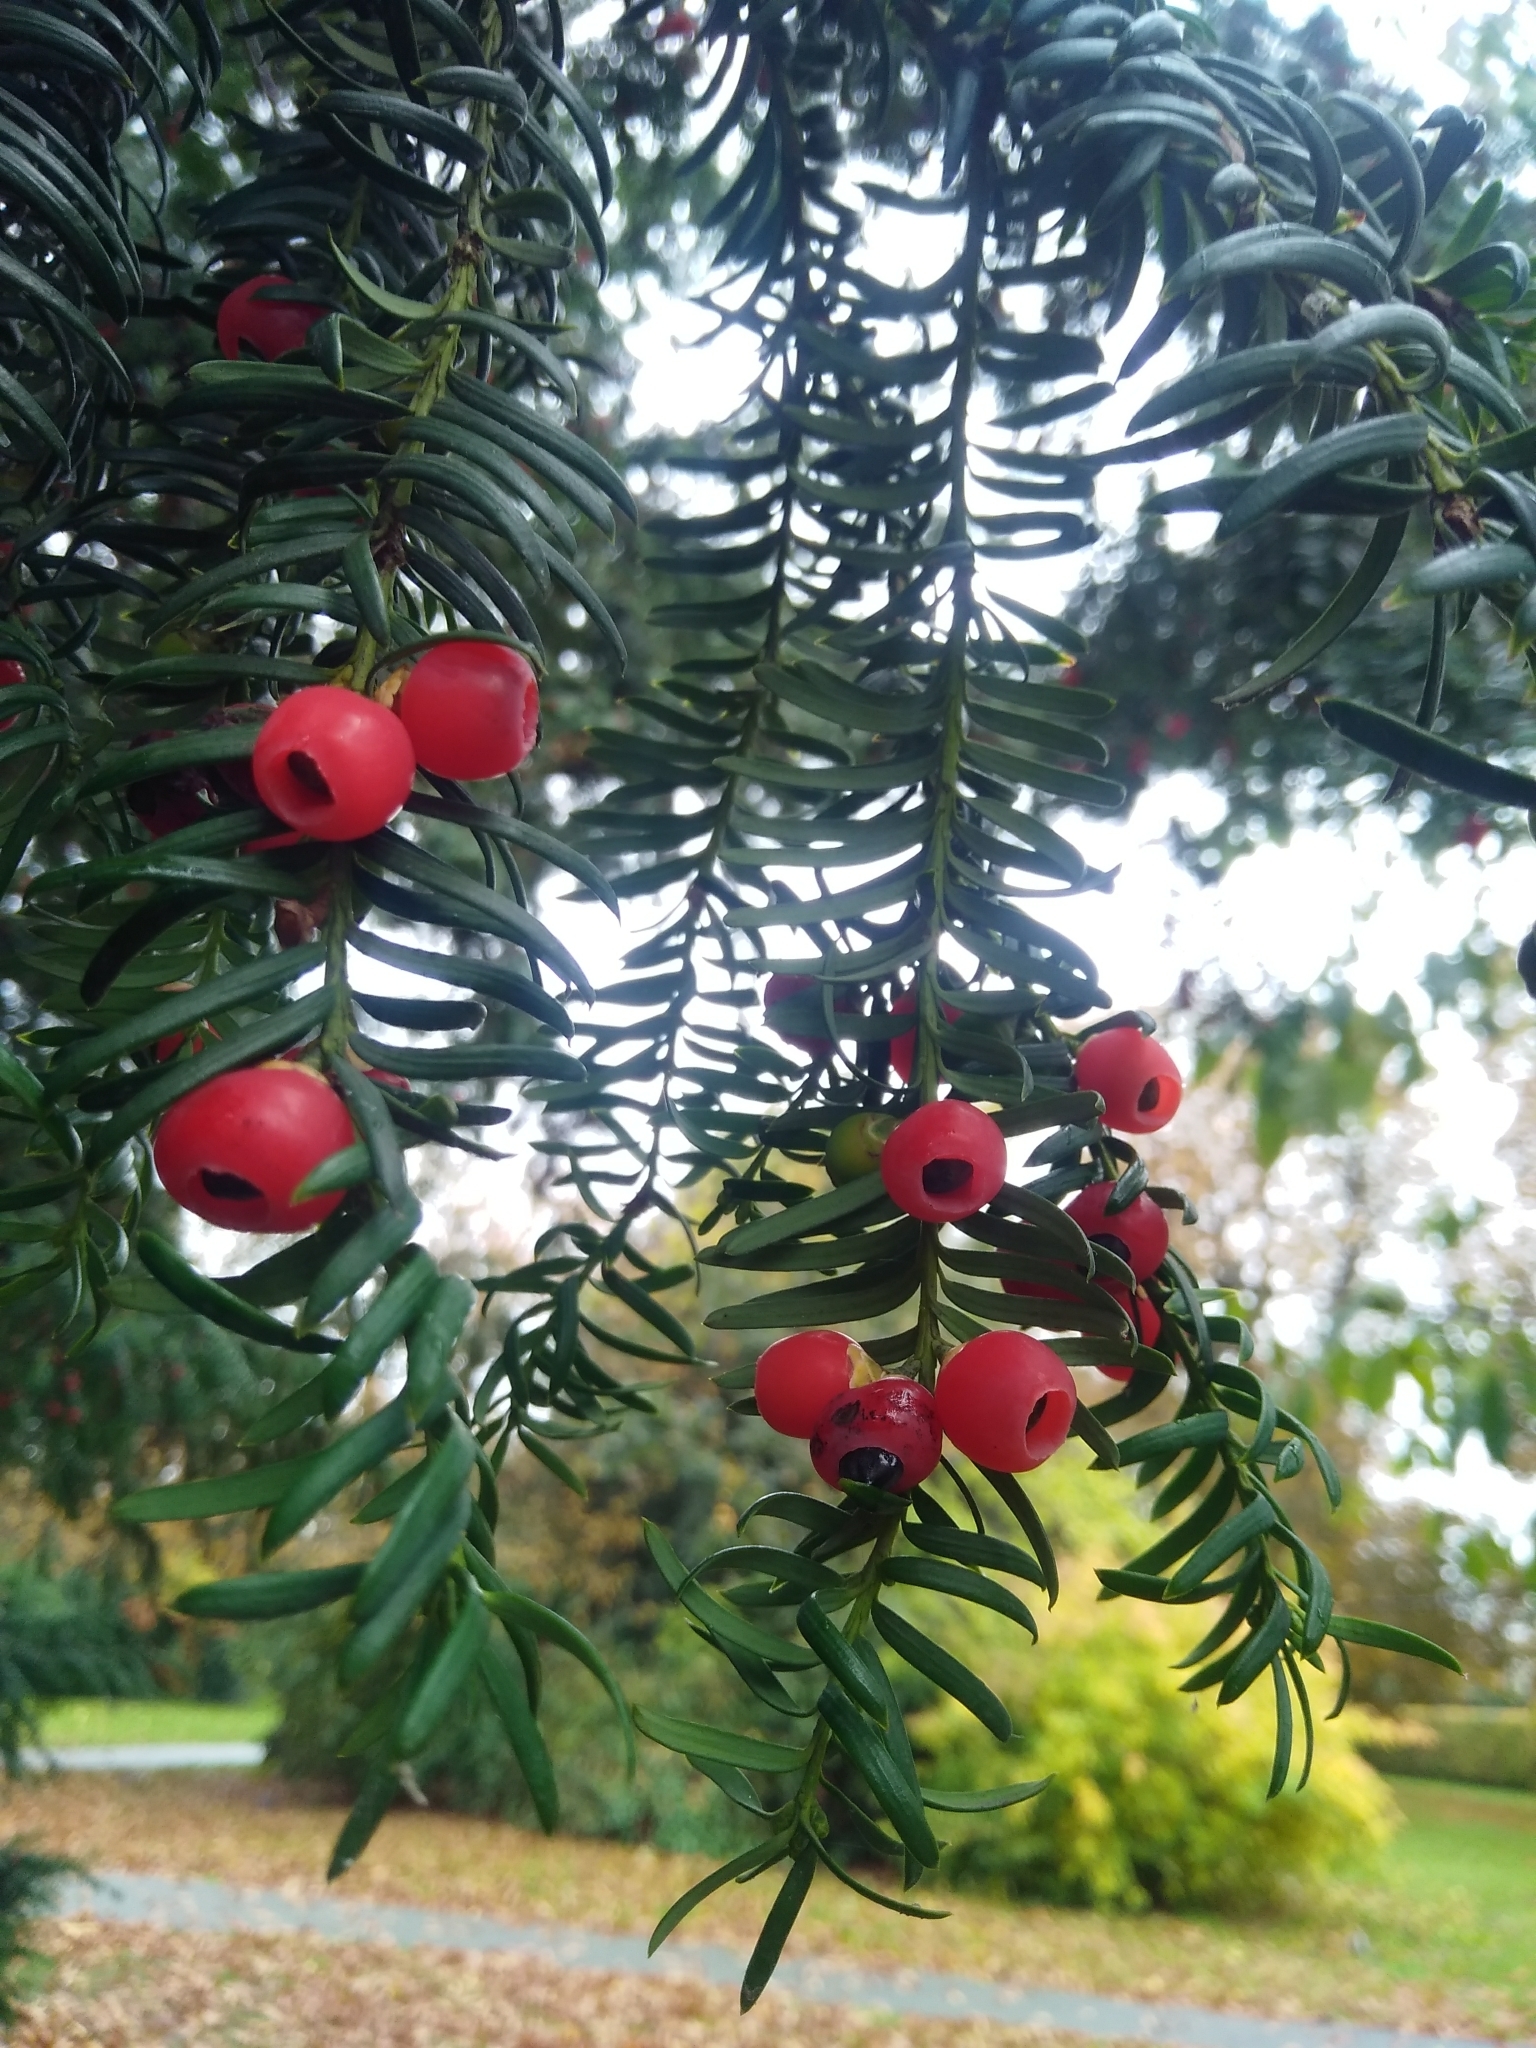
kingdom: Plantae
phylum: Tracheophyta
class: Pinopsida
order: Pinales
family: Taxaceae
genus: Taxus
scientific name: Taxus baccata
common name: Yew
